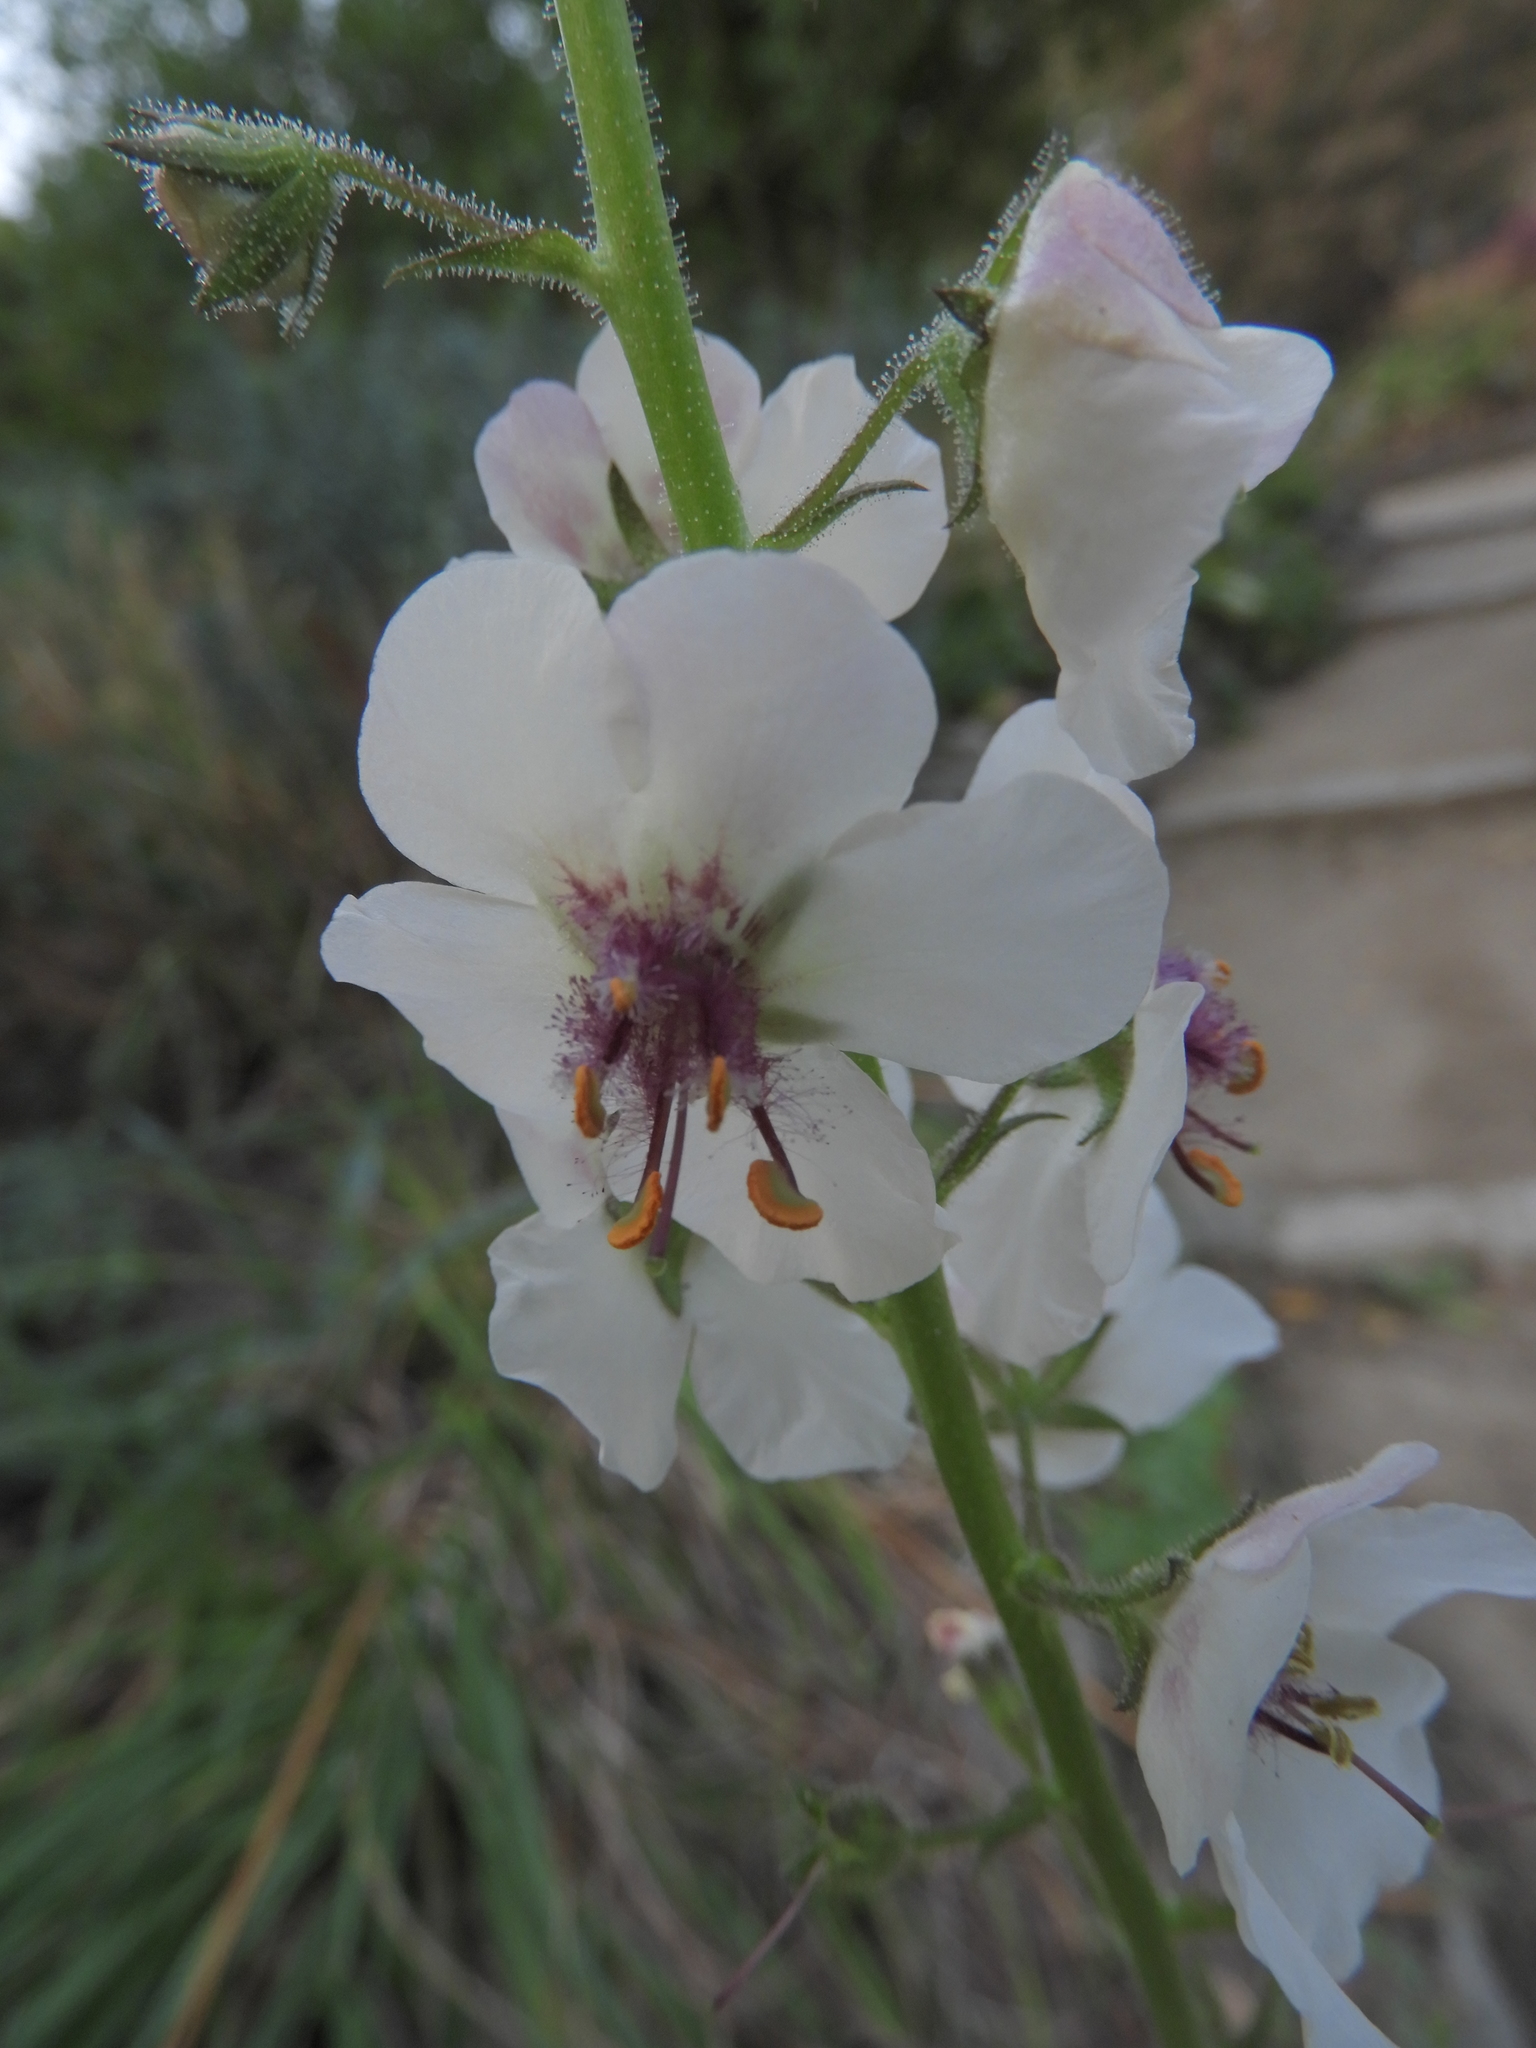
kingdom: Plantae
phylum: Tracheophyta
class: Magnoliopsida
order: Lamiales
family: Scrophulariaceae
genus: Verbascum
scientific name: Verbascum blattaria
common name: Moth mullein
